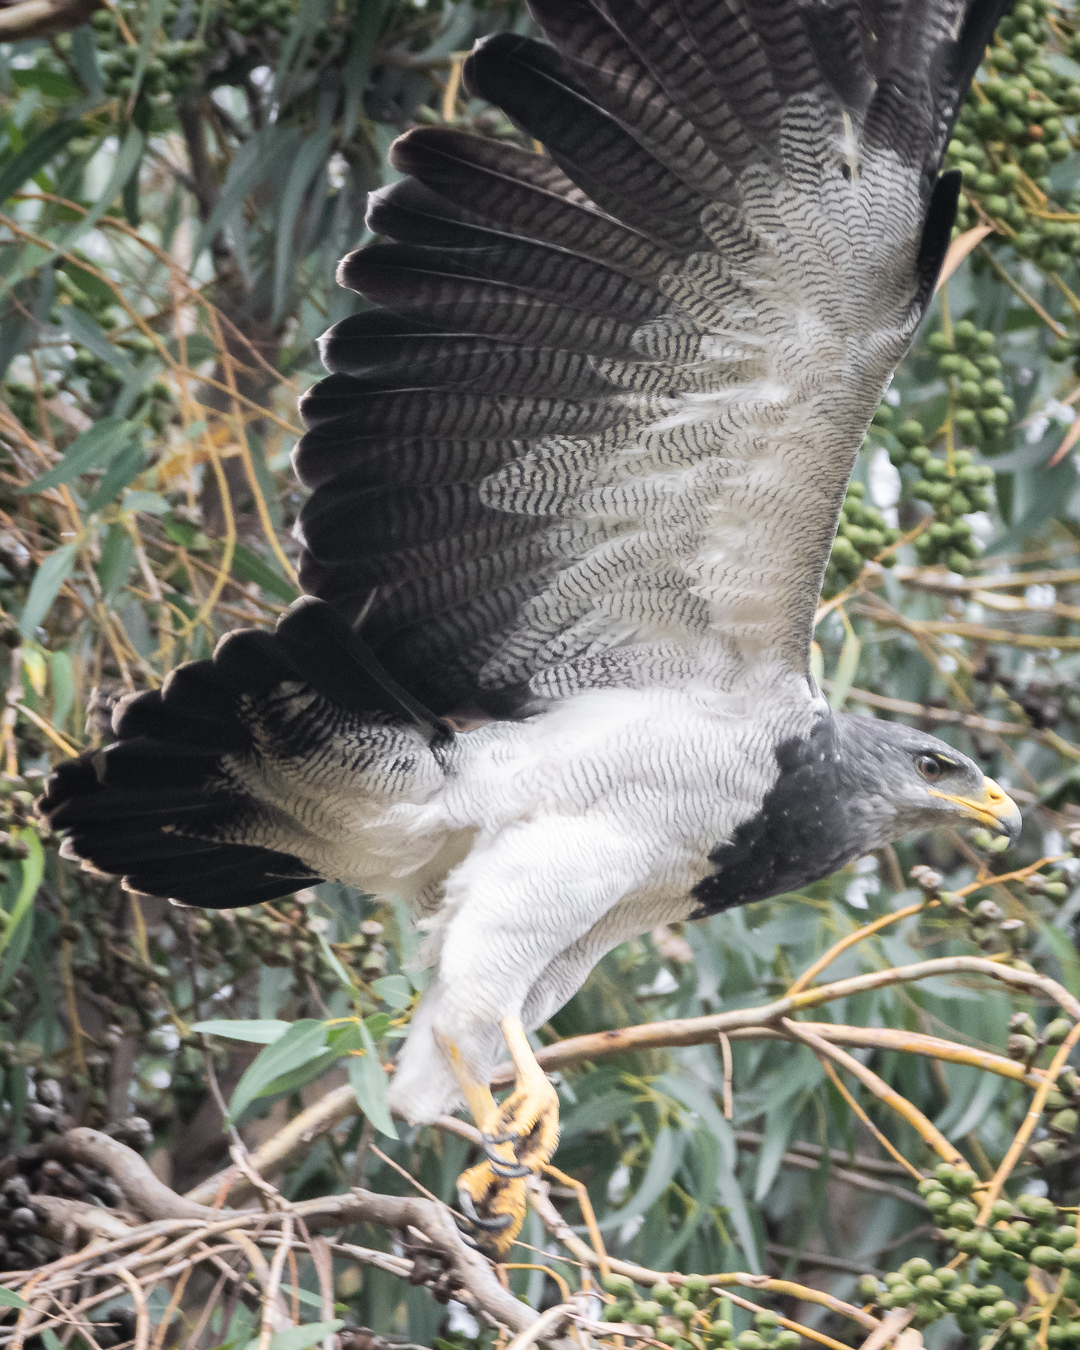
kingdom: Animalia
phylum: Chordata
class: Aves
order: Accipitriformes
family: Accipitridae
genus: Geranoaetus
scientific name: Geranoaetus melanoleucus
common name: Black-chested buzzard-eagle
